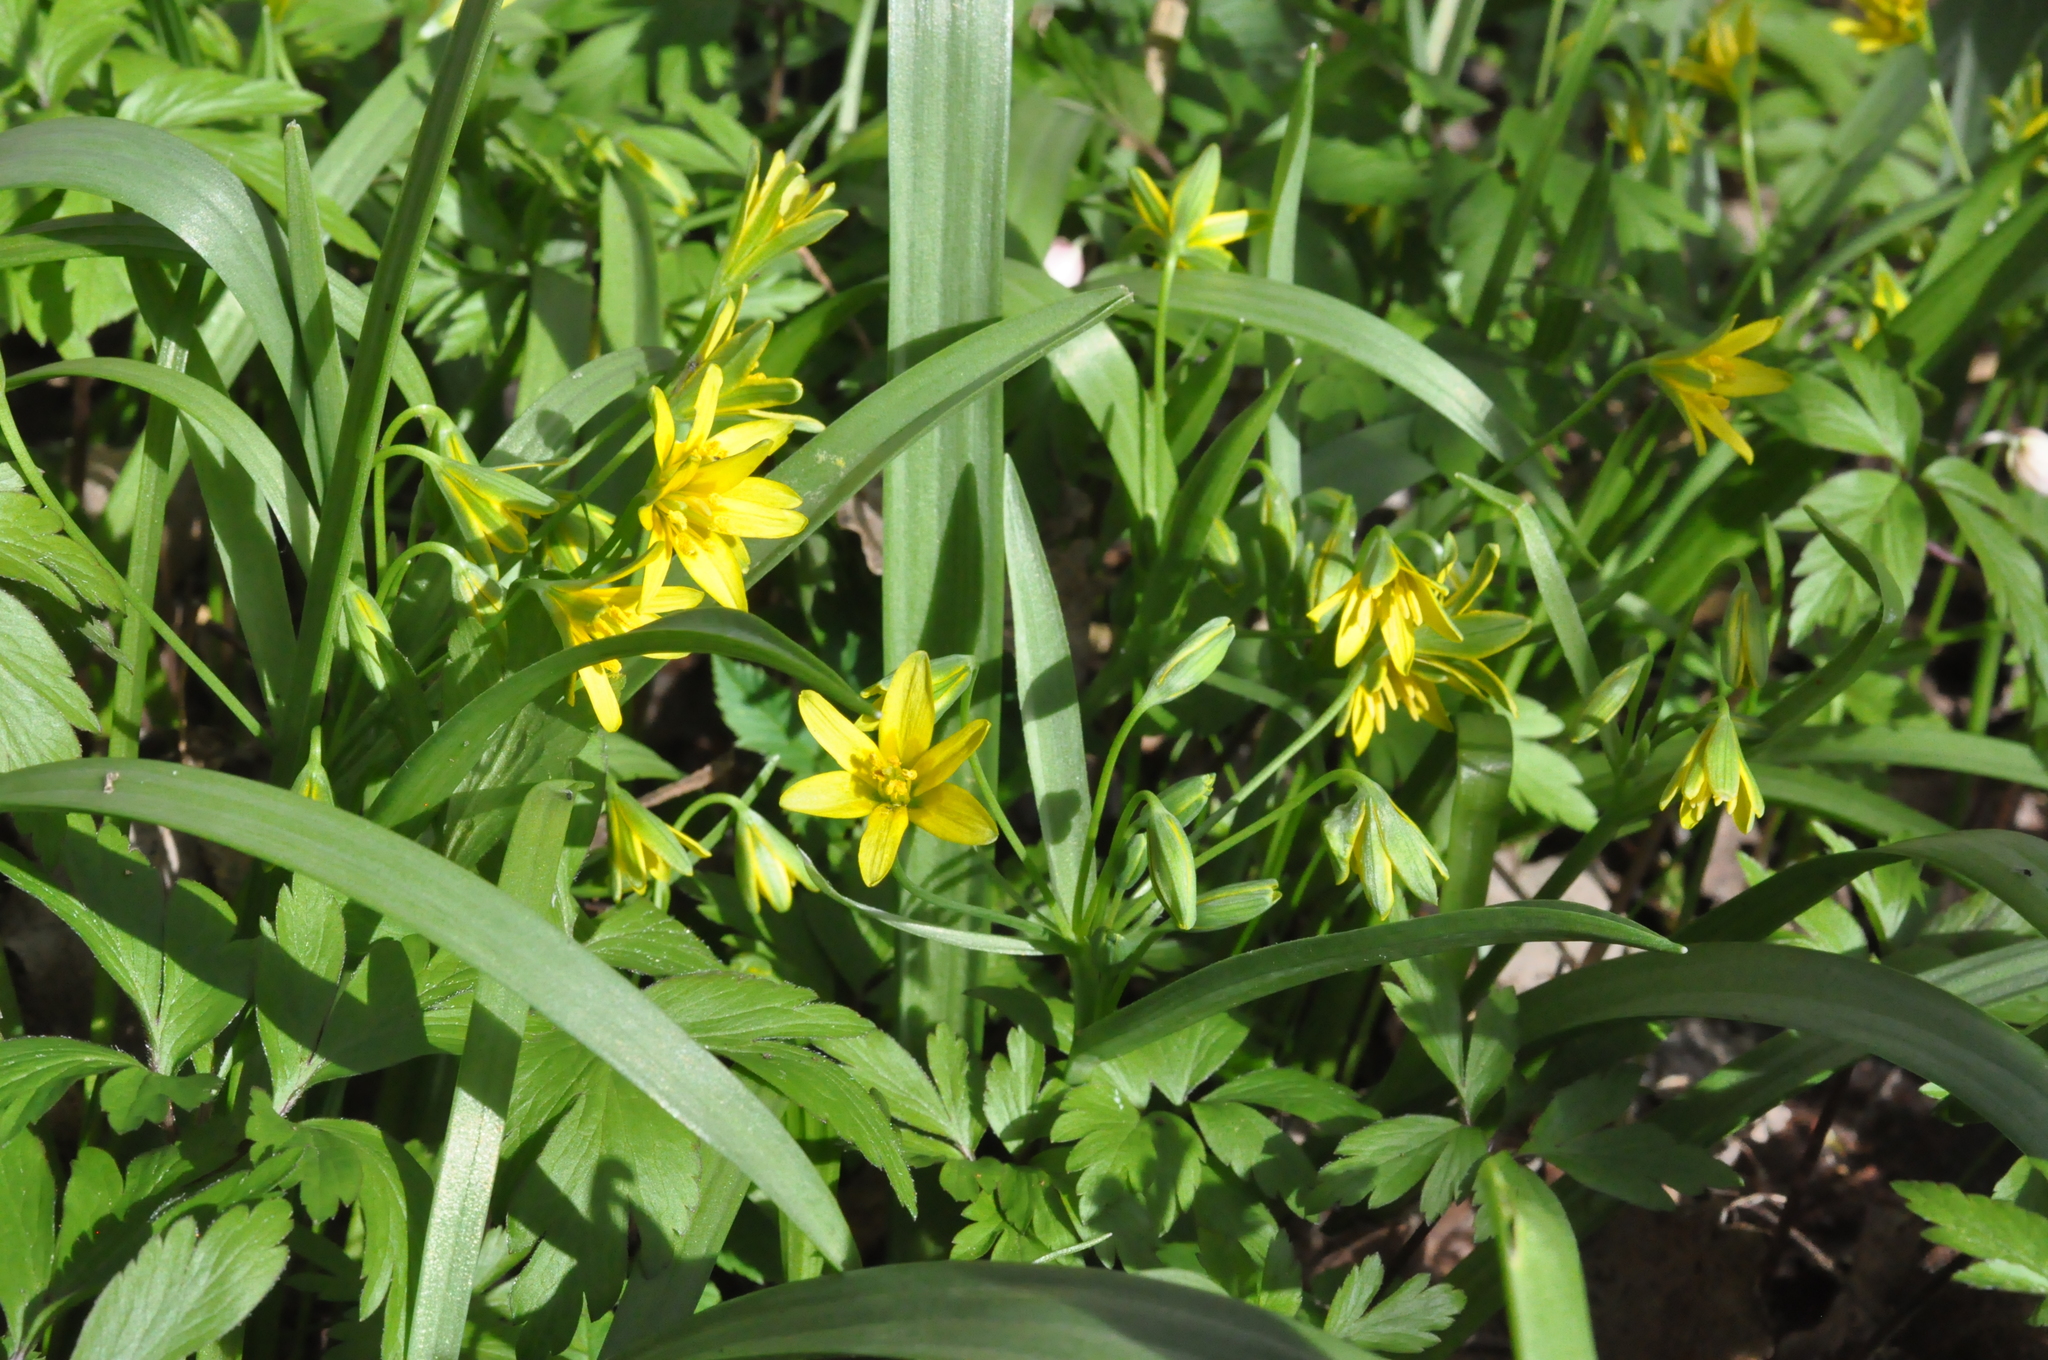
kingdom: Plantae
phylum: Tracheophyta
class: Liliopsida
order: Liliales
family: Liliaceae
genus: Gagea
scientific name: Gagea lutea
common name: Yellow star-of-bethlehem
